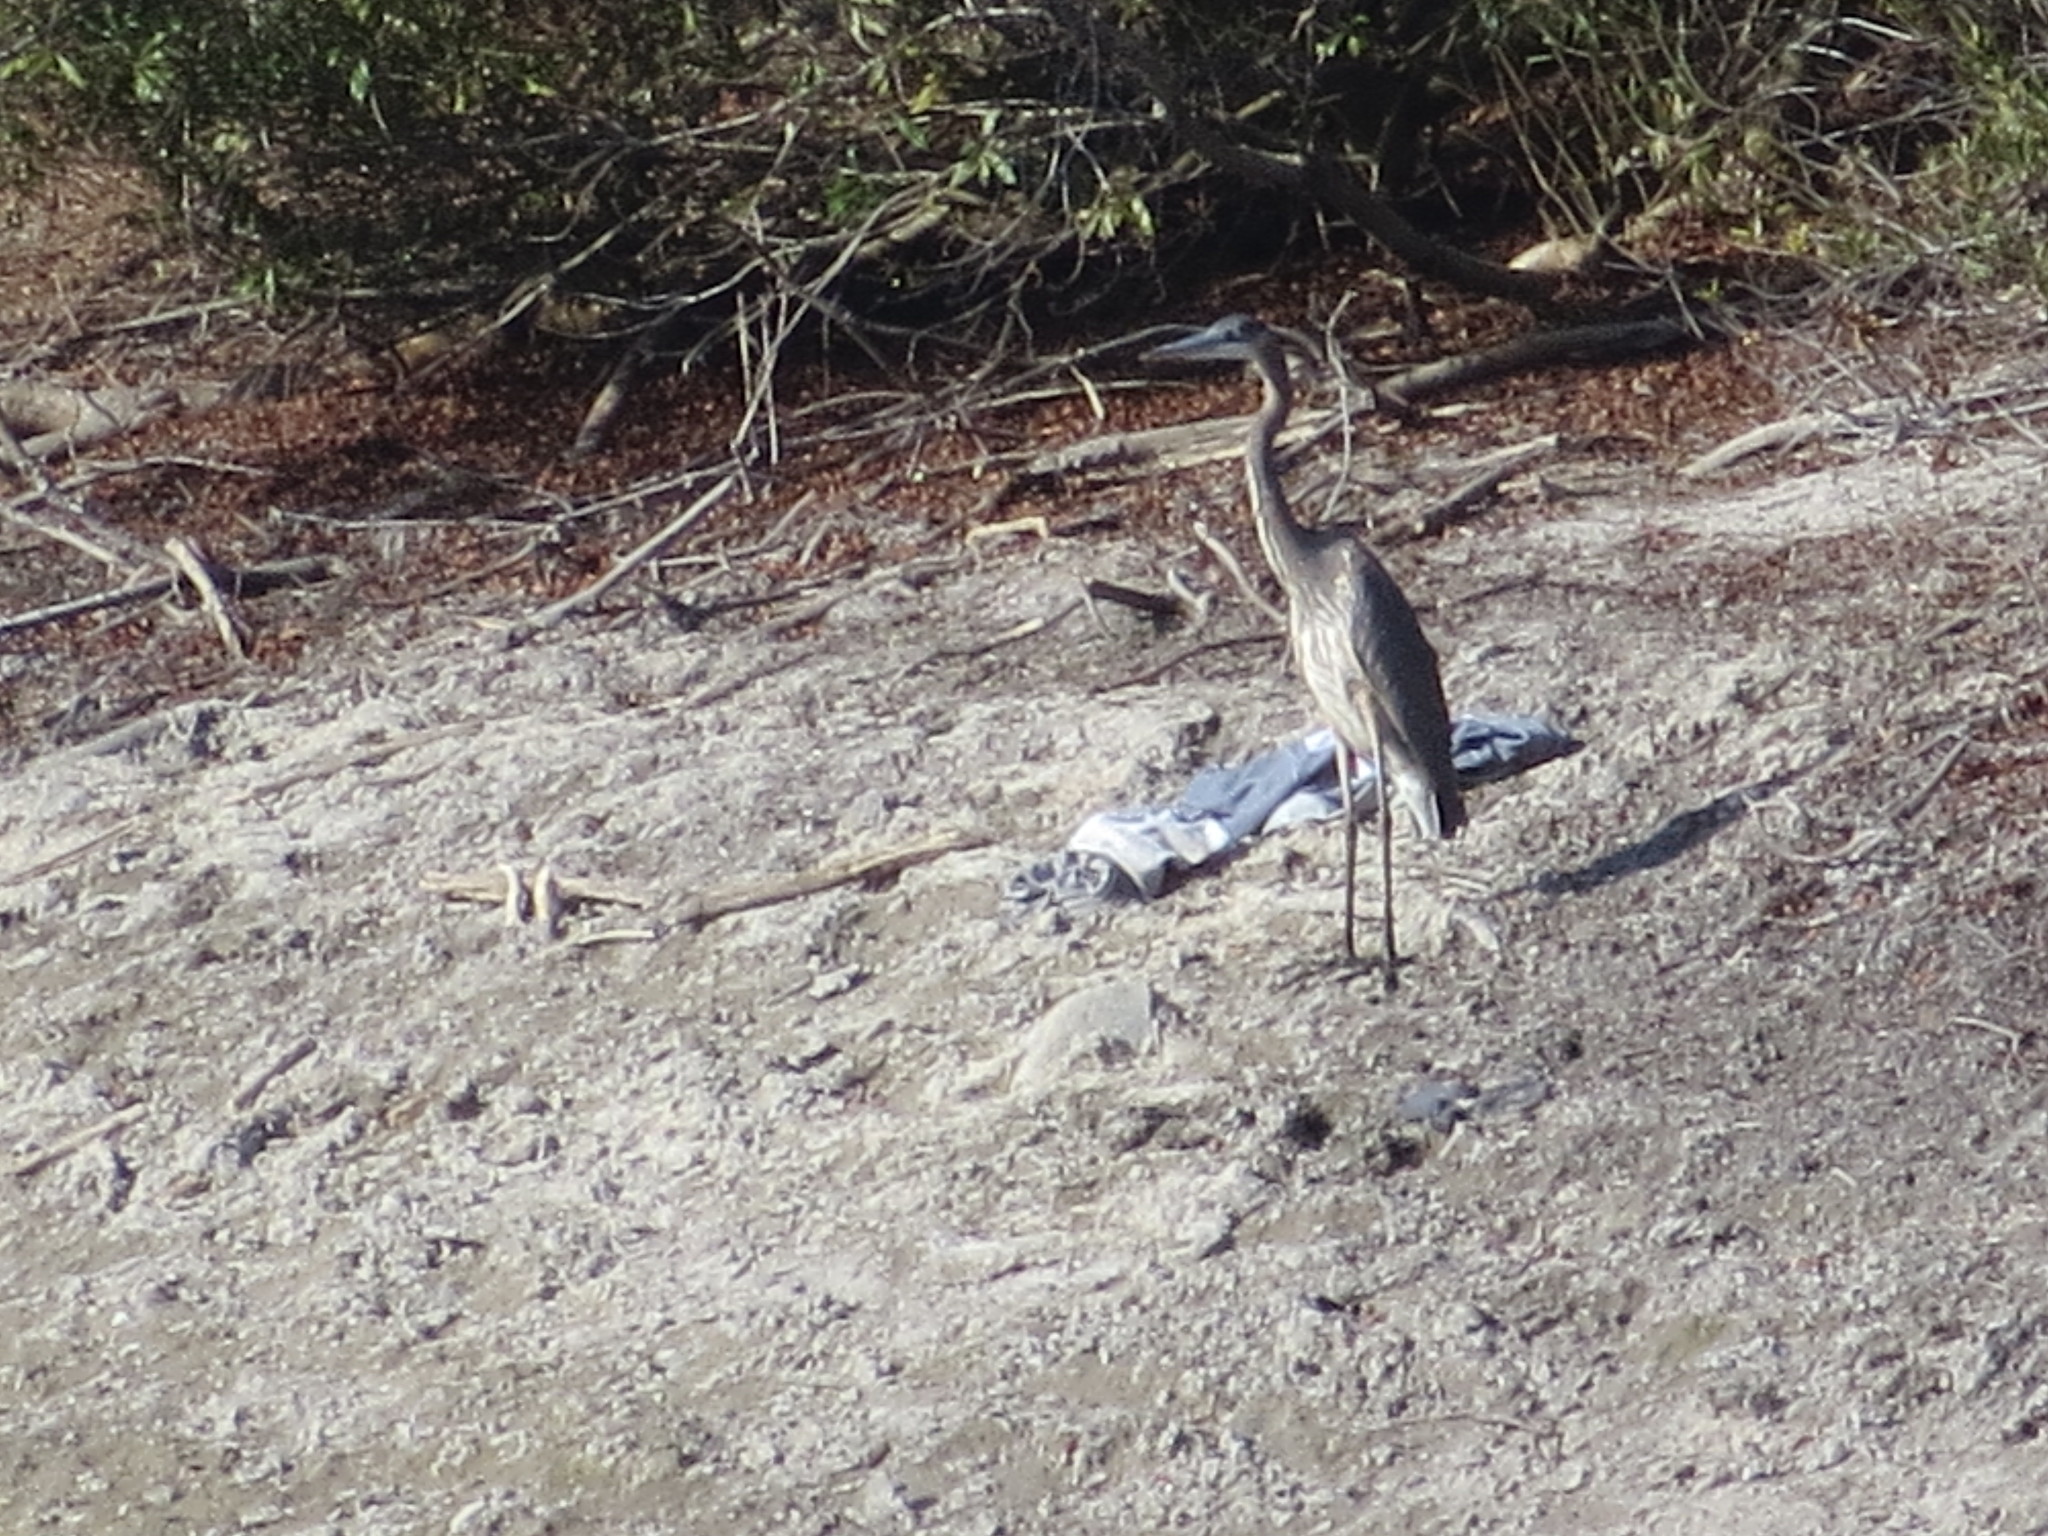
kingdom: Animalia
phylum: Chordata
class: Aves
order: Pelecaniformes
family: Ardeidae
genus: Ardea
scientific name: Ardea herodias
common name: Great blue heron
